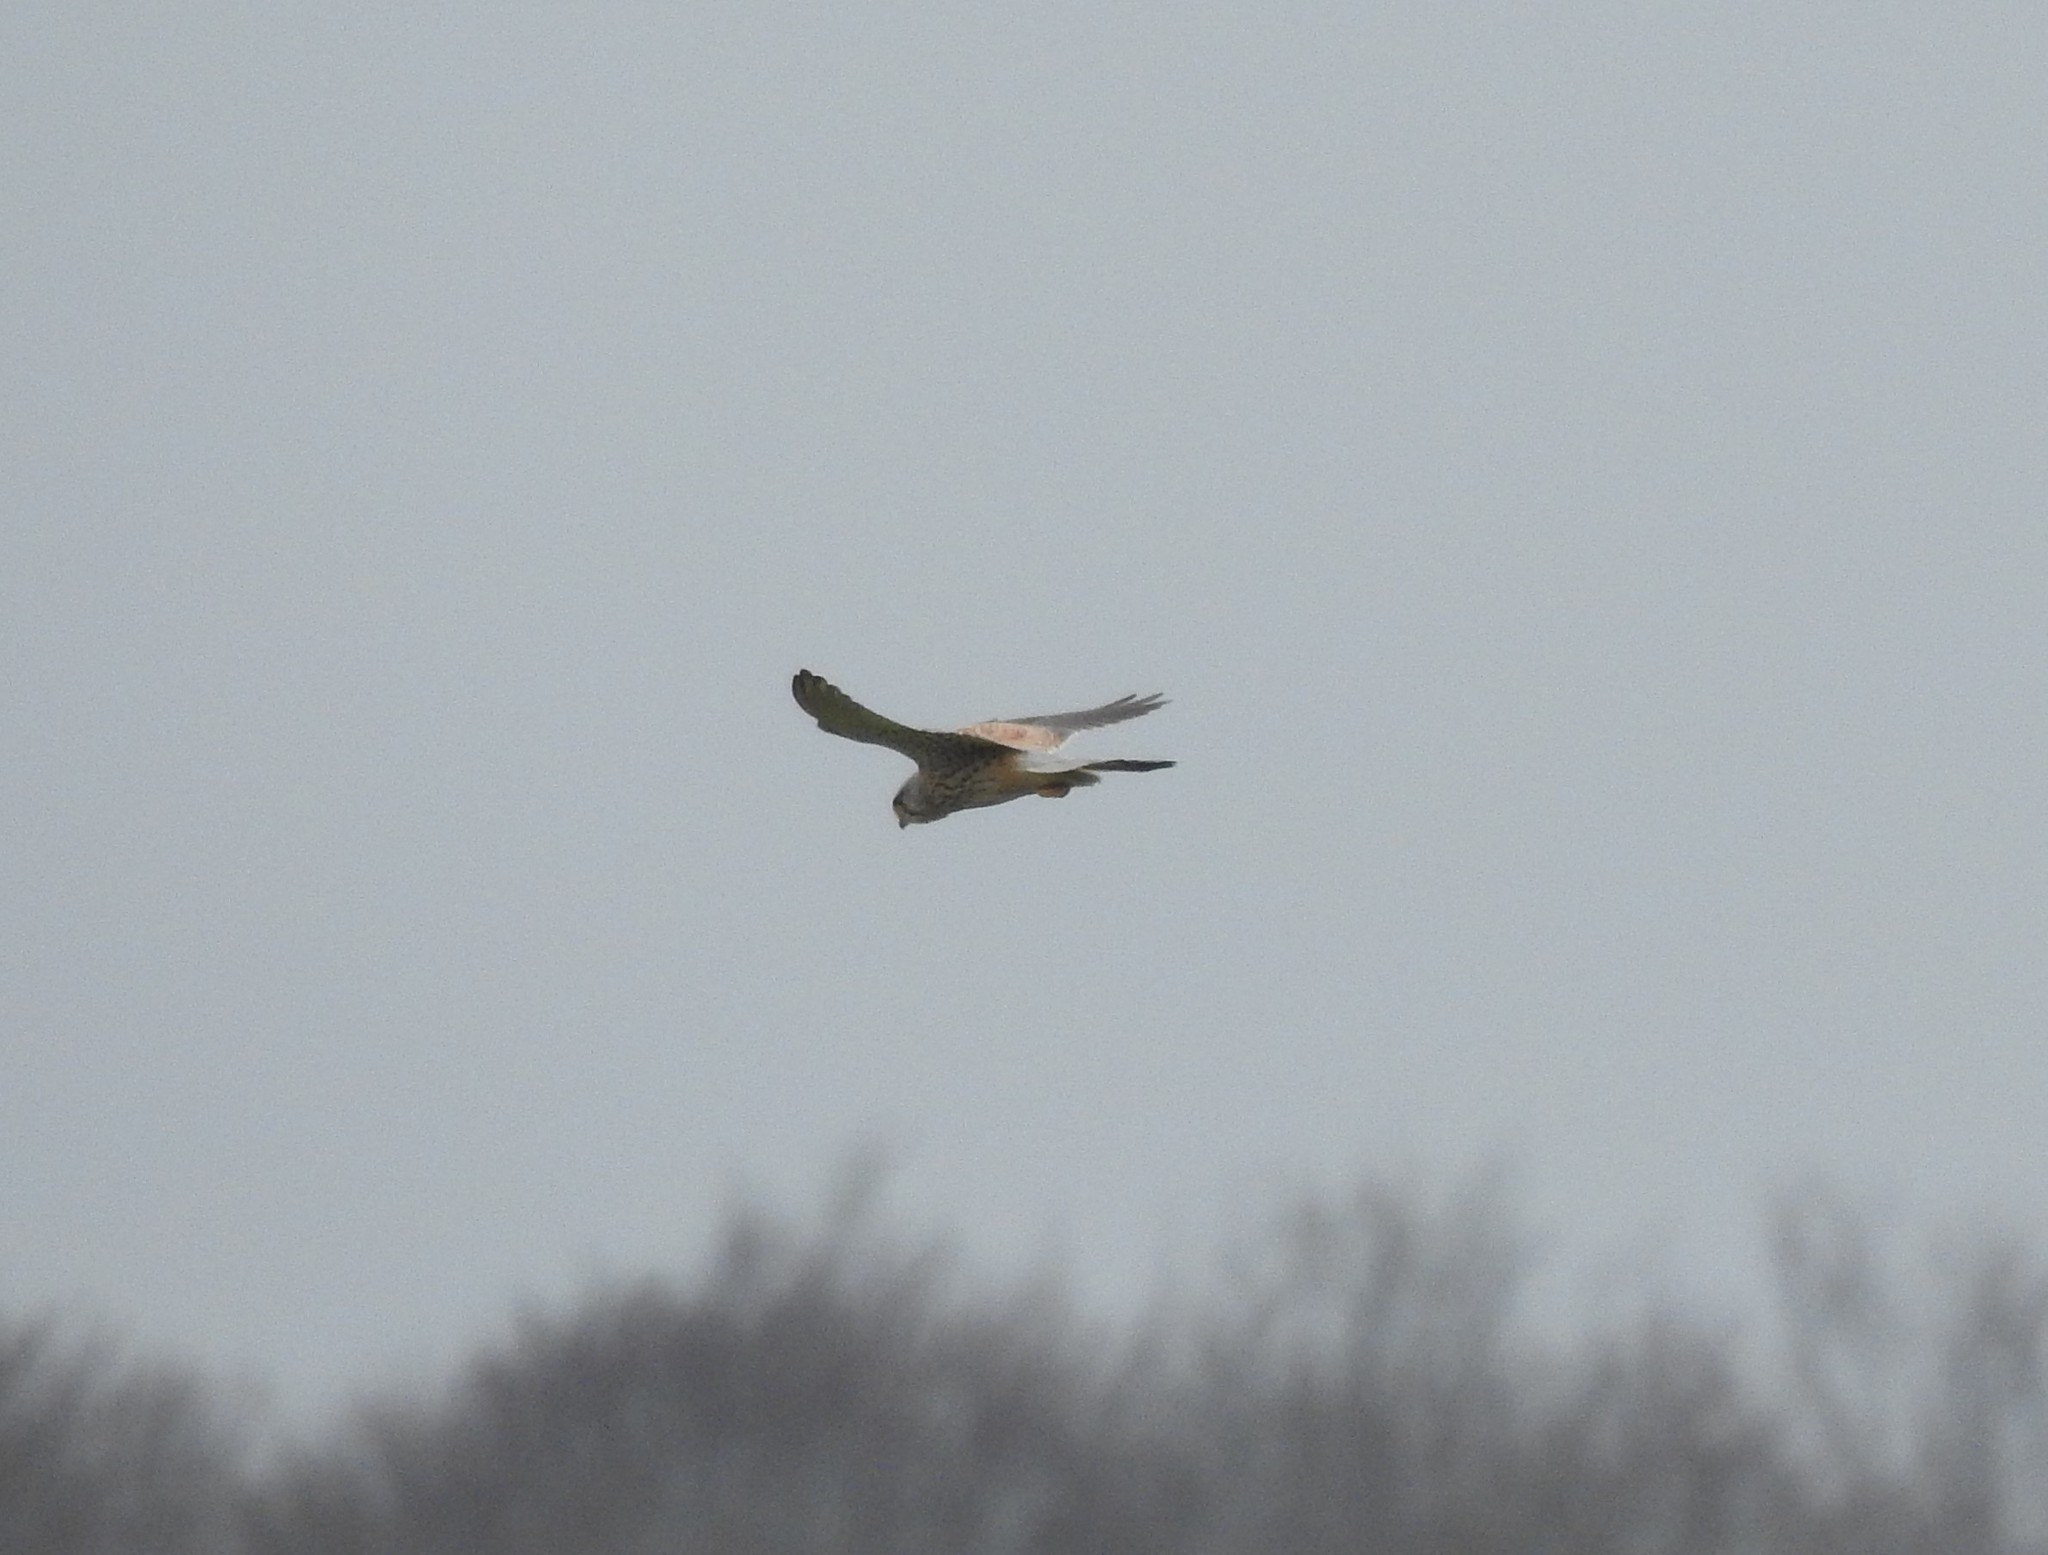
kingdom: Animalia
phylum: Chordata
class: Aves
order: Falconiformes
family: Falconidae
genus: Falco
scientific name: Falco tinnunculus
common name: Common kestrel
